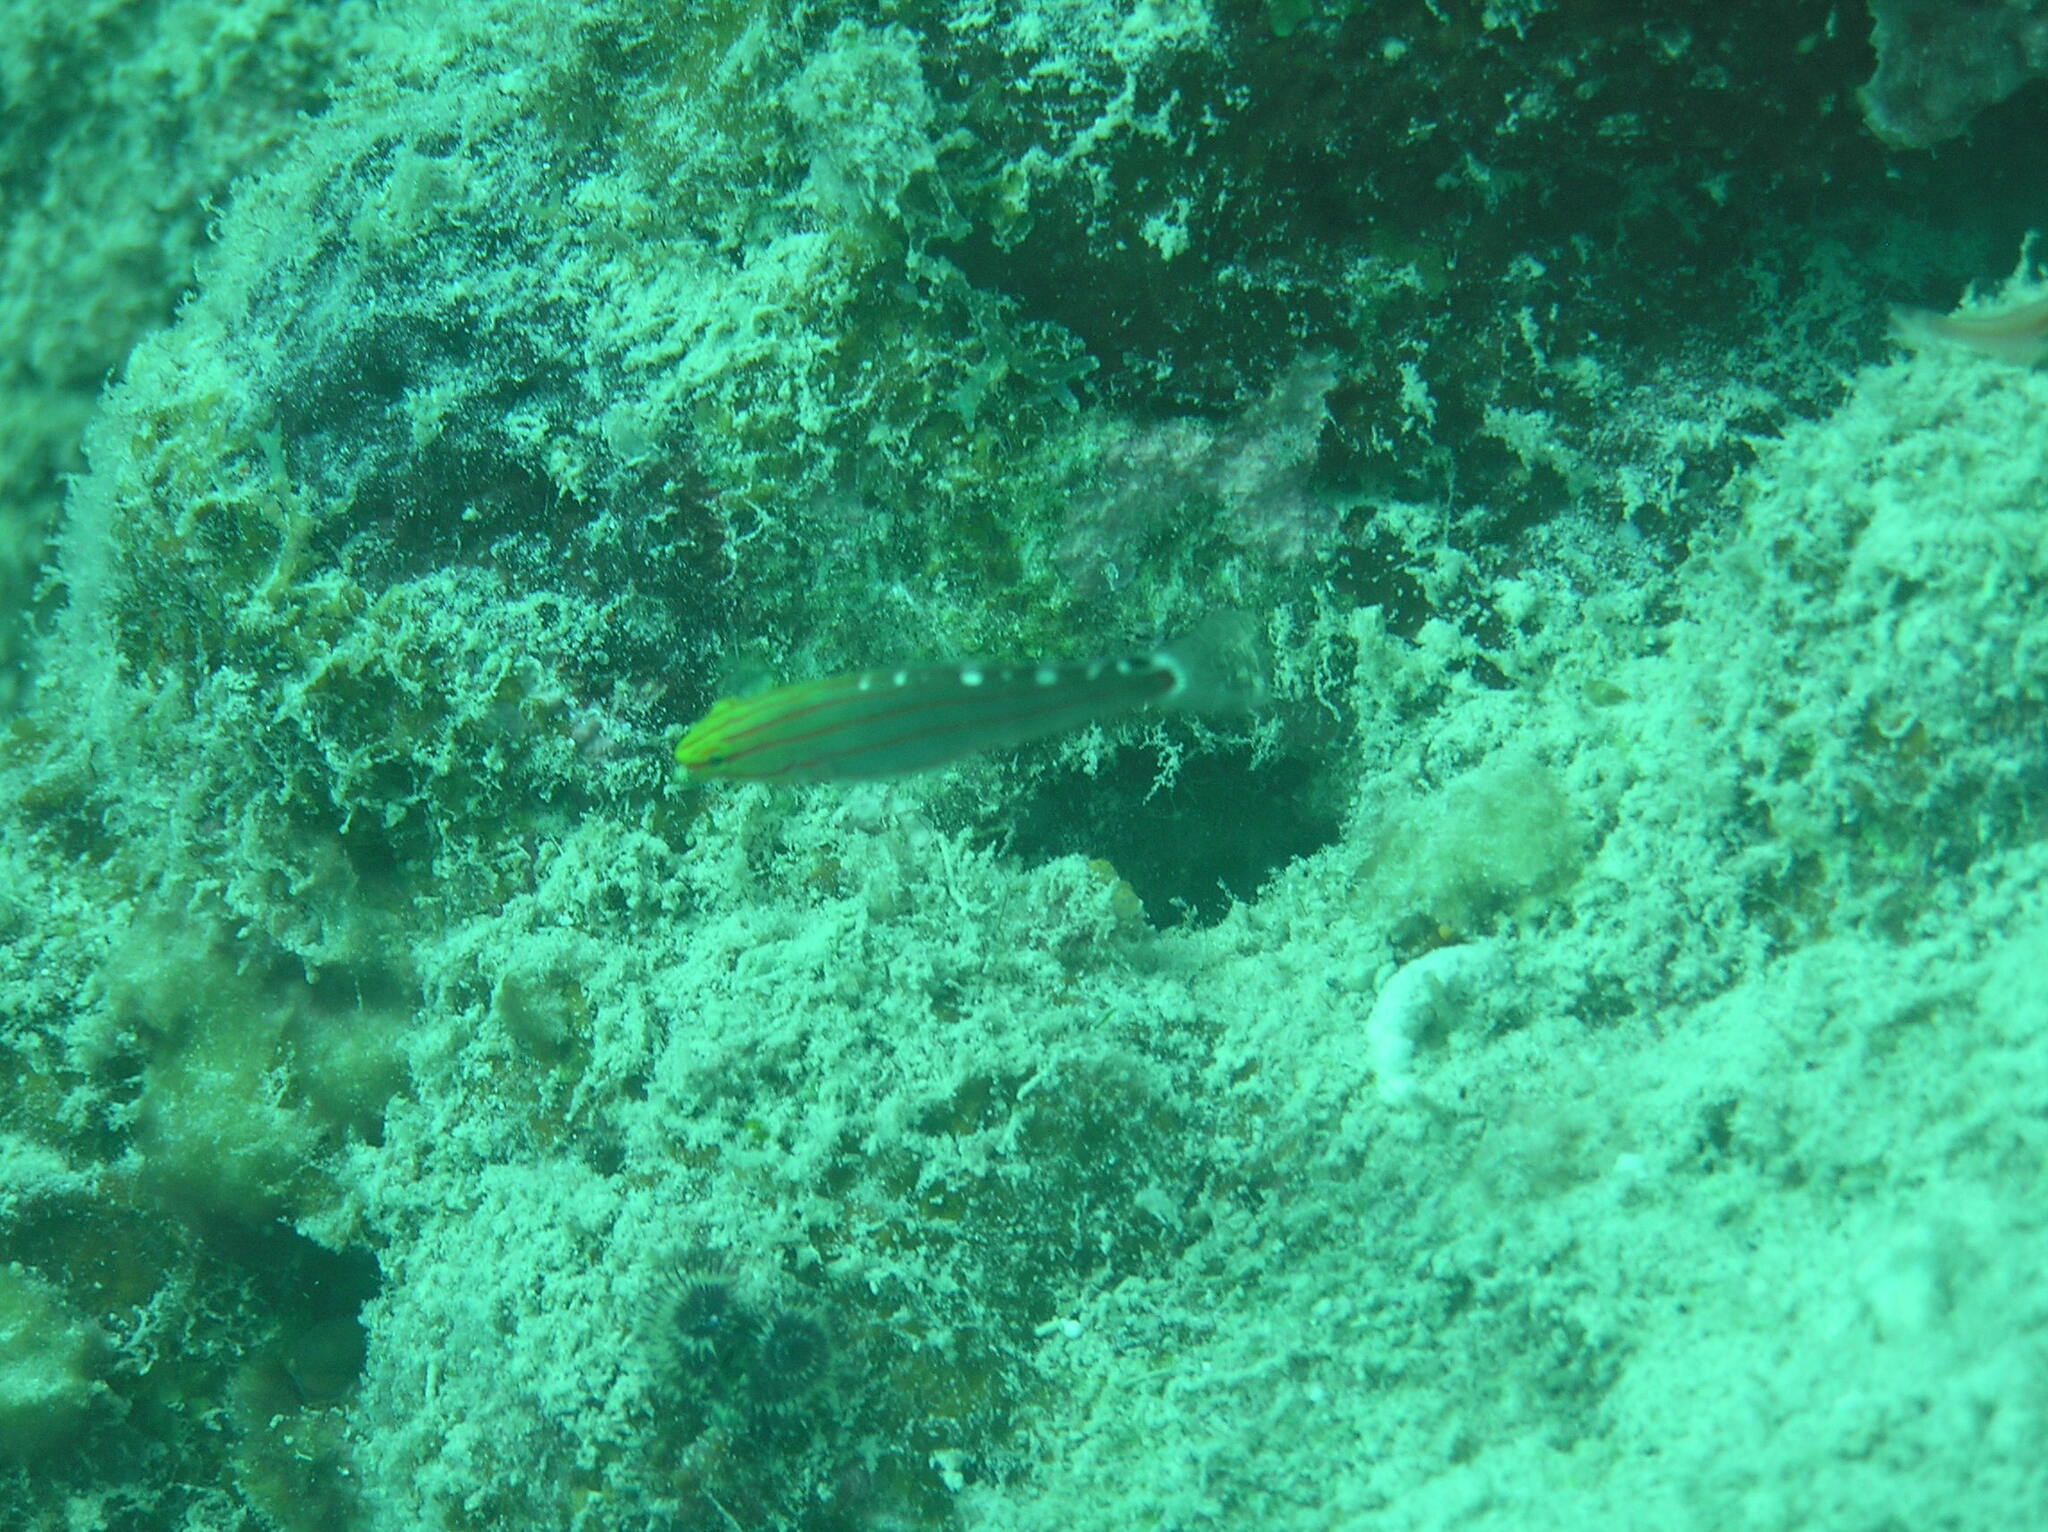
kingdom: Animalia
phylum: Chordata
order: Perciformes
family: Gobiidae
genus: Koumansetta
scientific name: Koumansetta rainfordi
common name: Old glory
